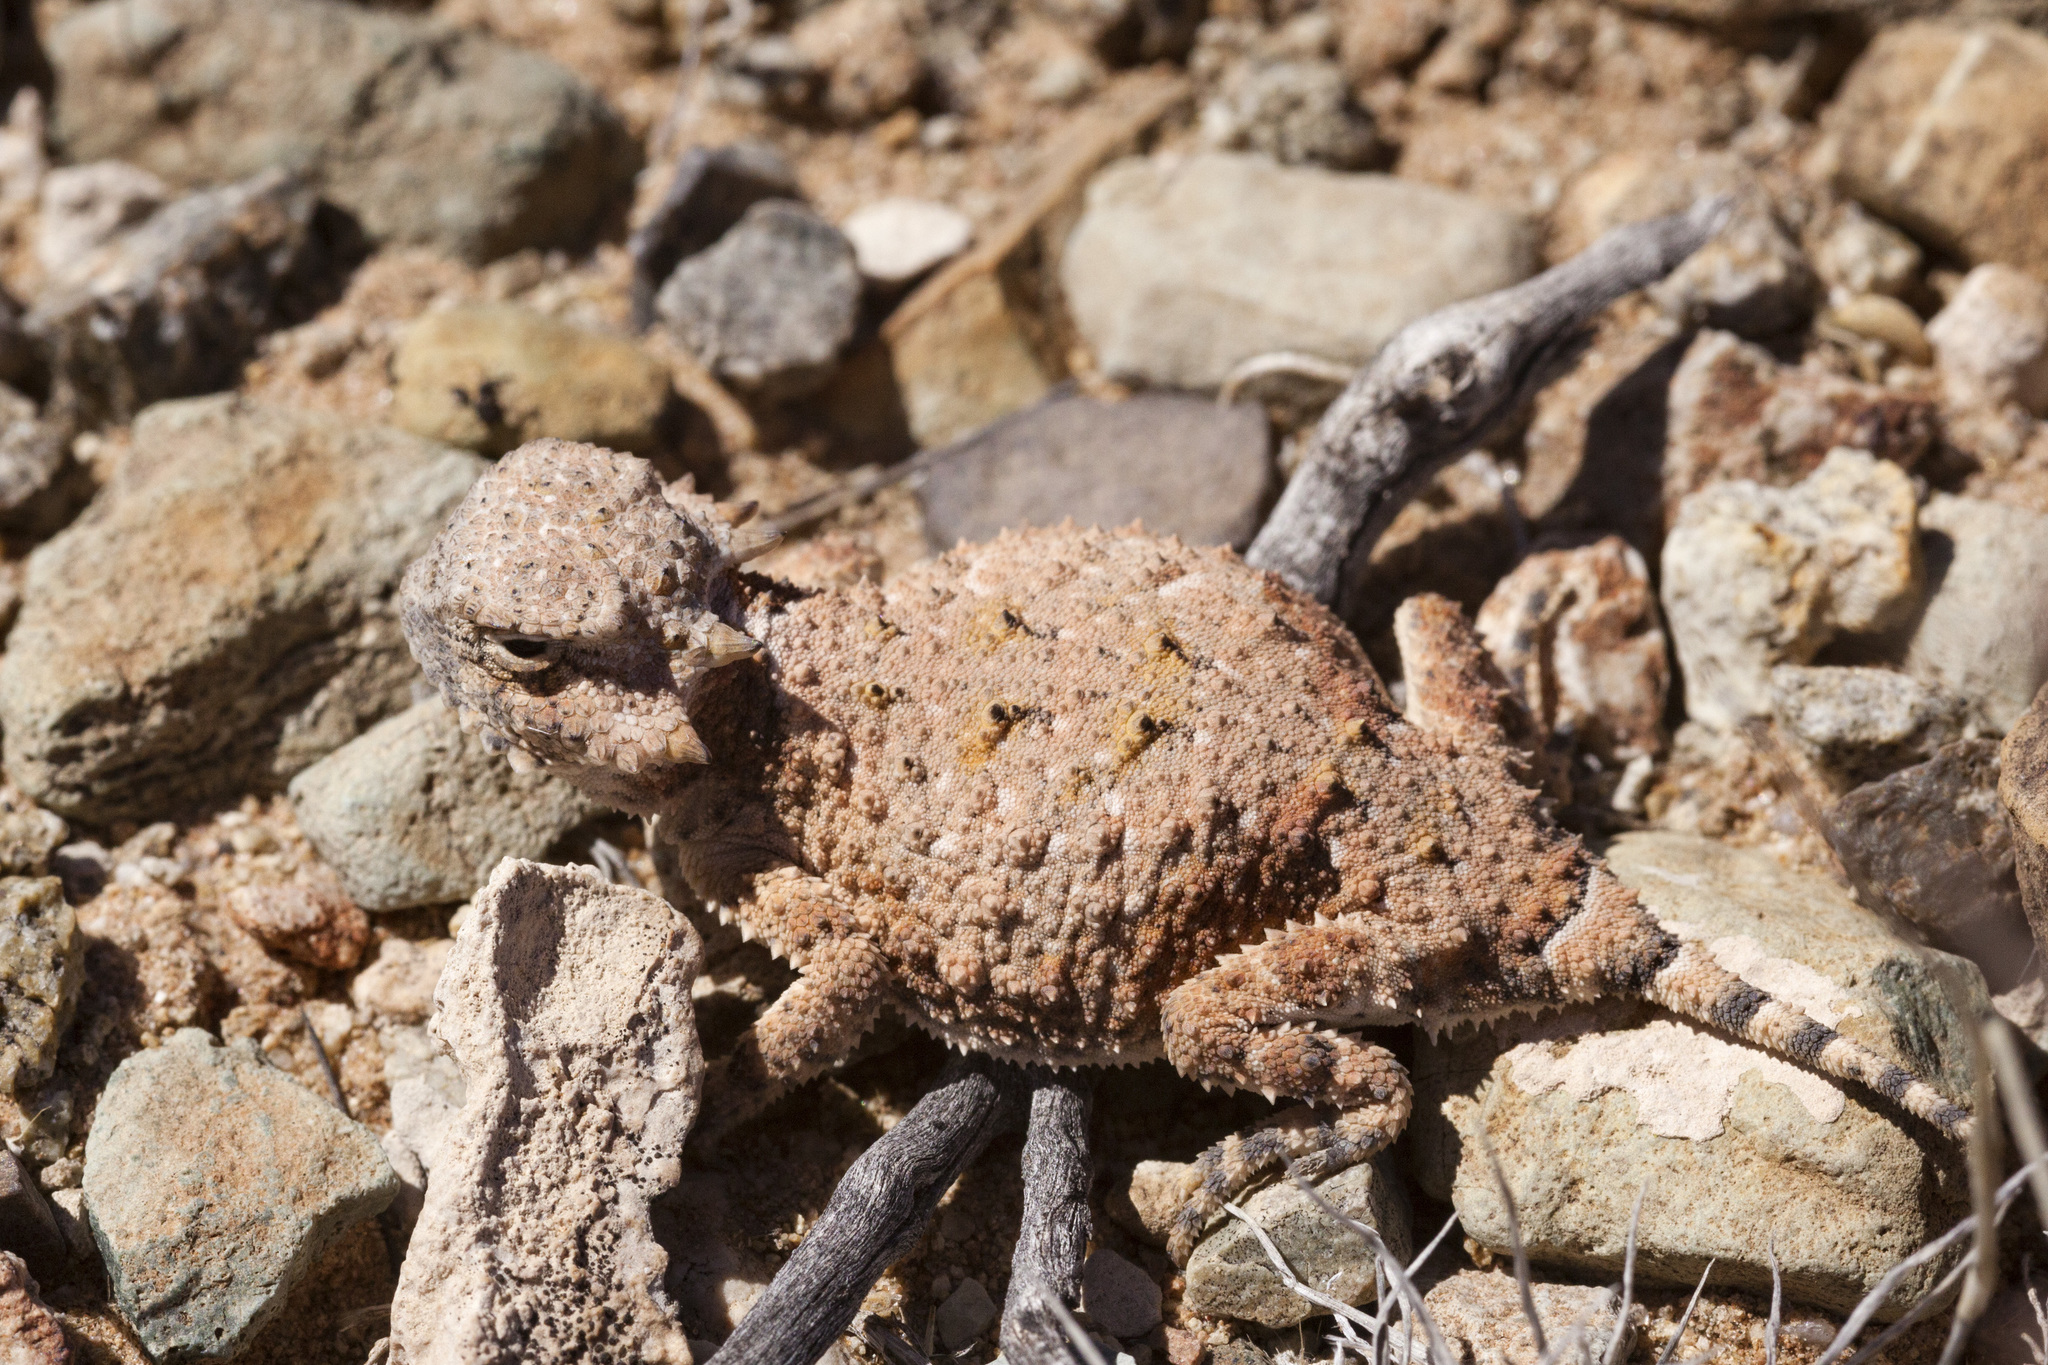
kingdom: Animalia
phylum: Chordata
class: Squamata
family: Phrynosomatidae
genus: Phrynosoma
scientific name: Phrynosoma modestum
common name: Roundtail horned lizard
